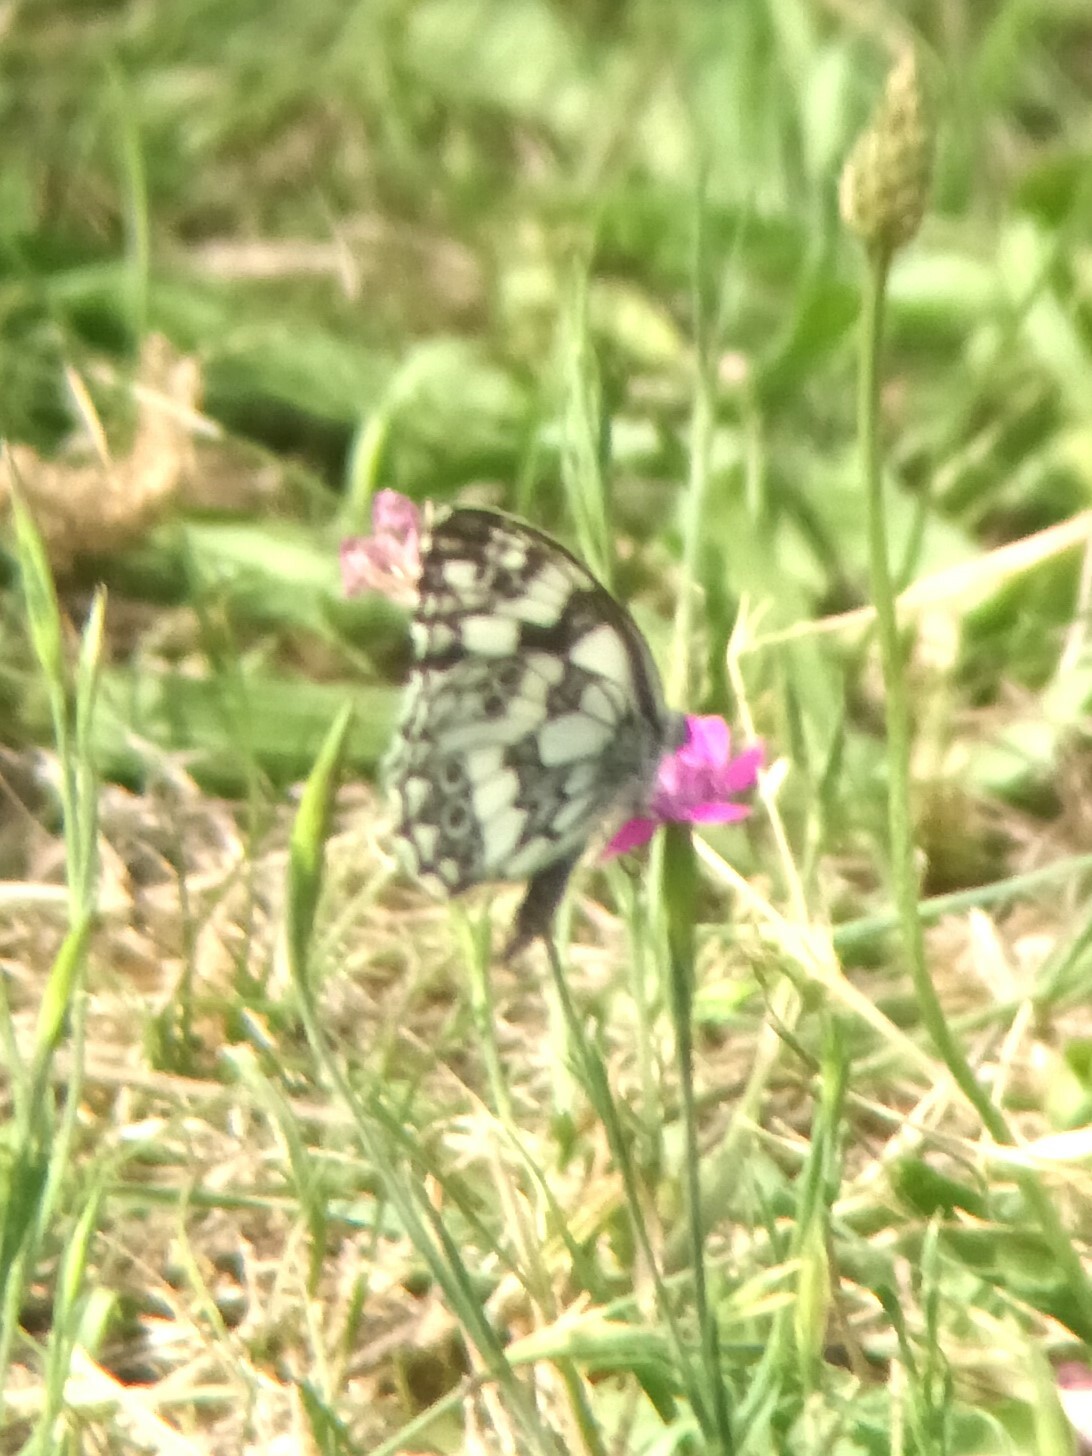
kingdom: Animalia
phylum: Arthropoda
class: Insecta
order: Lepidoptera
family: Nymphalidae
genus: Melanargia
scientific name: Melanargia galathea
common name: Marbled white
